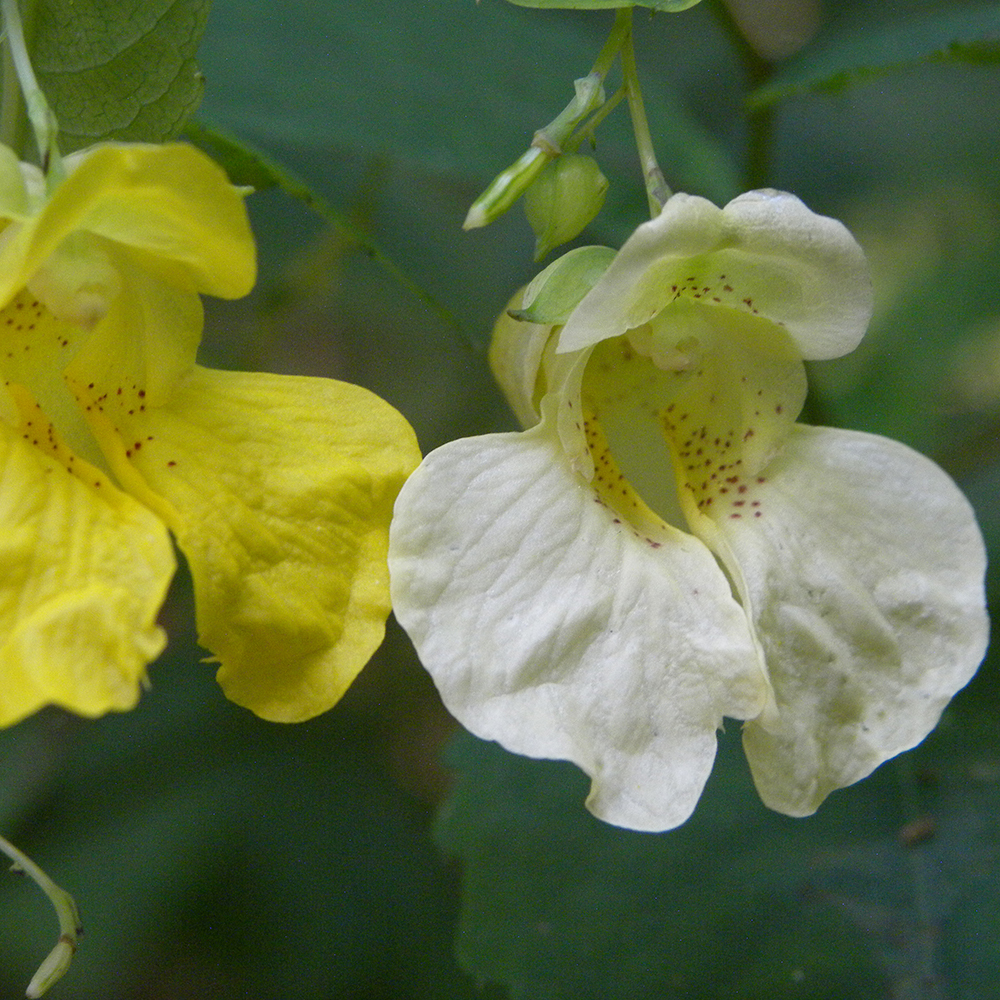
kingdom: Plantae
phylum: Tracheophyta
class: Magnoliopsida
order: Ericales
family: Balsaminaceae
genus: Impatiens
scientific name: Impatiens pallida
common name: Pale snapweed
